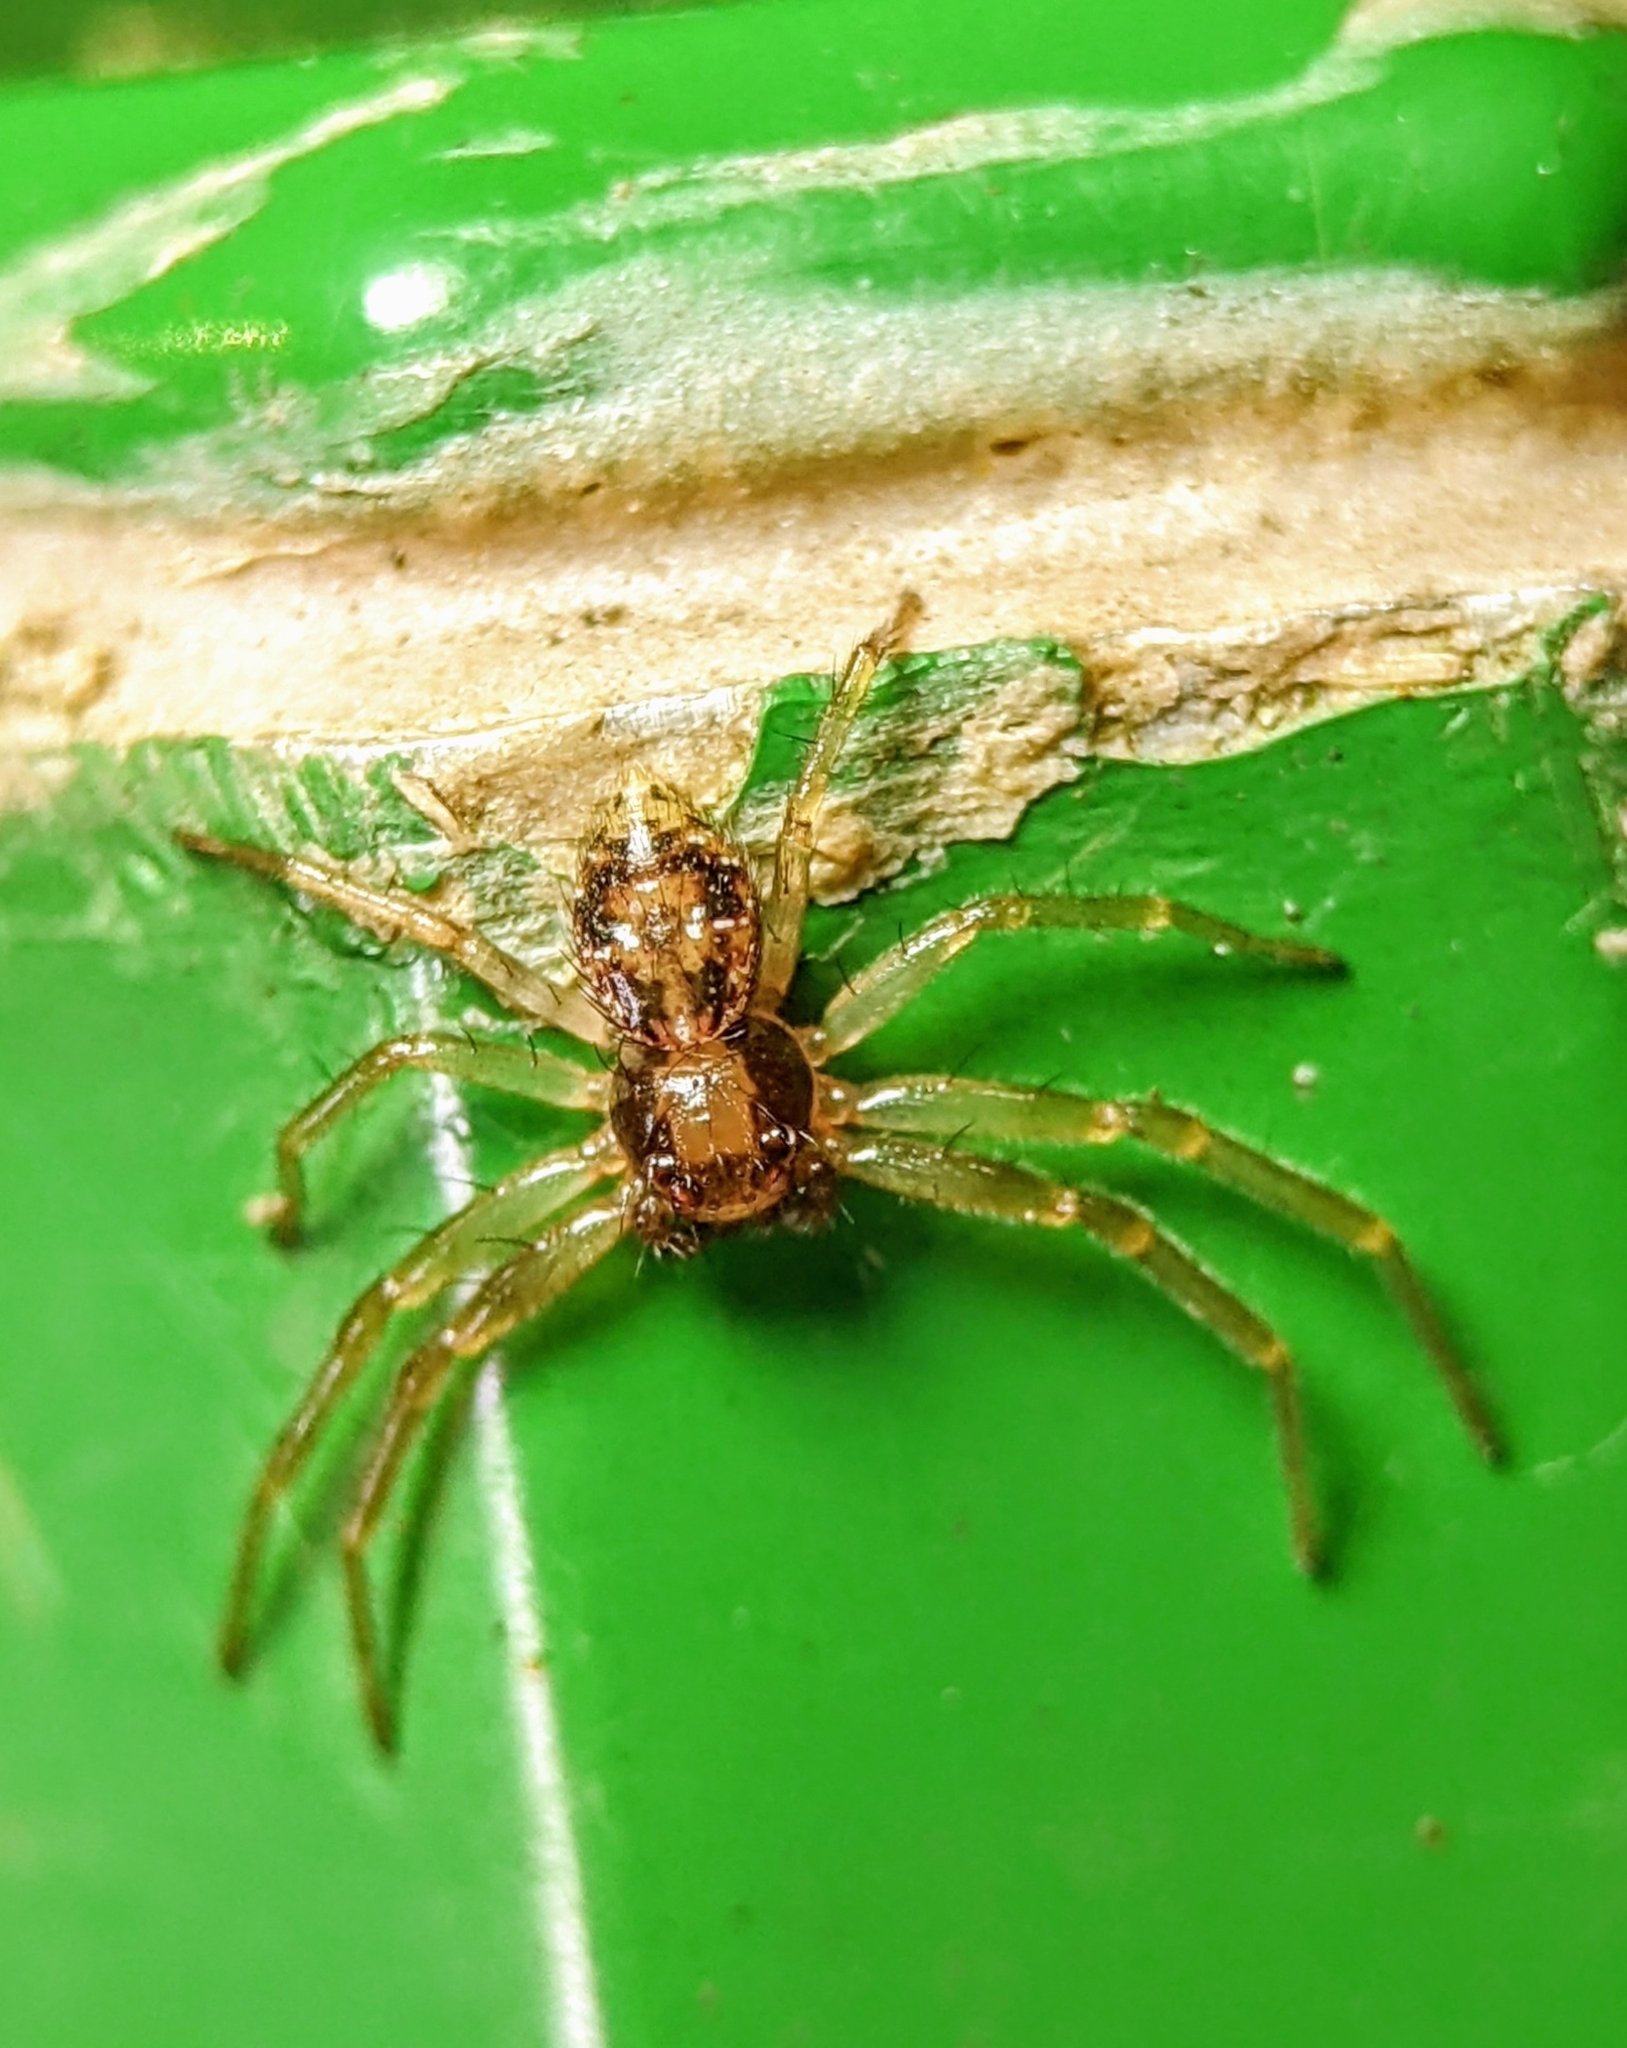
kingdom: Animalia
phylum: Arthropoda
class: Arachnida
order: Araneae
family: Thomisidae
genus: Philodamia
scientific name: Philodamia hilaris
